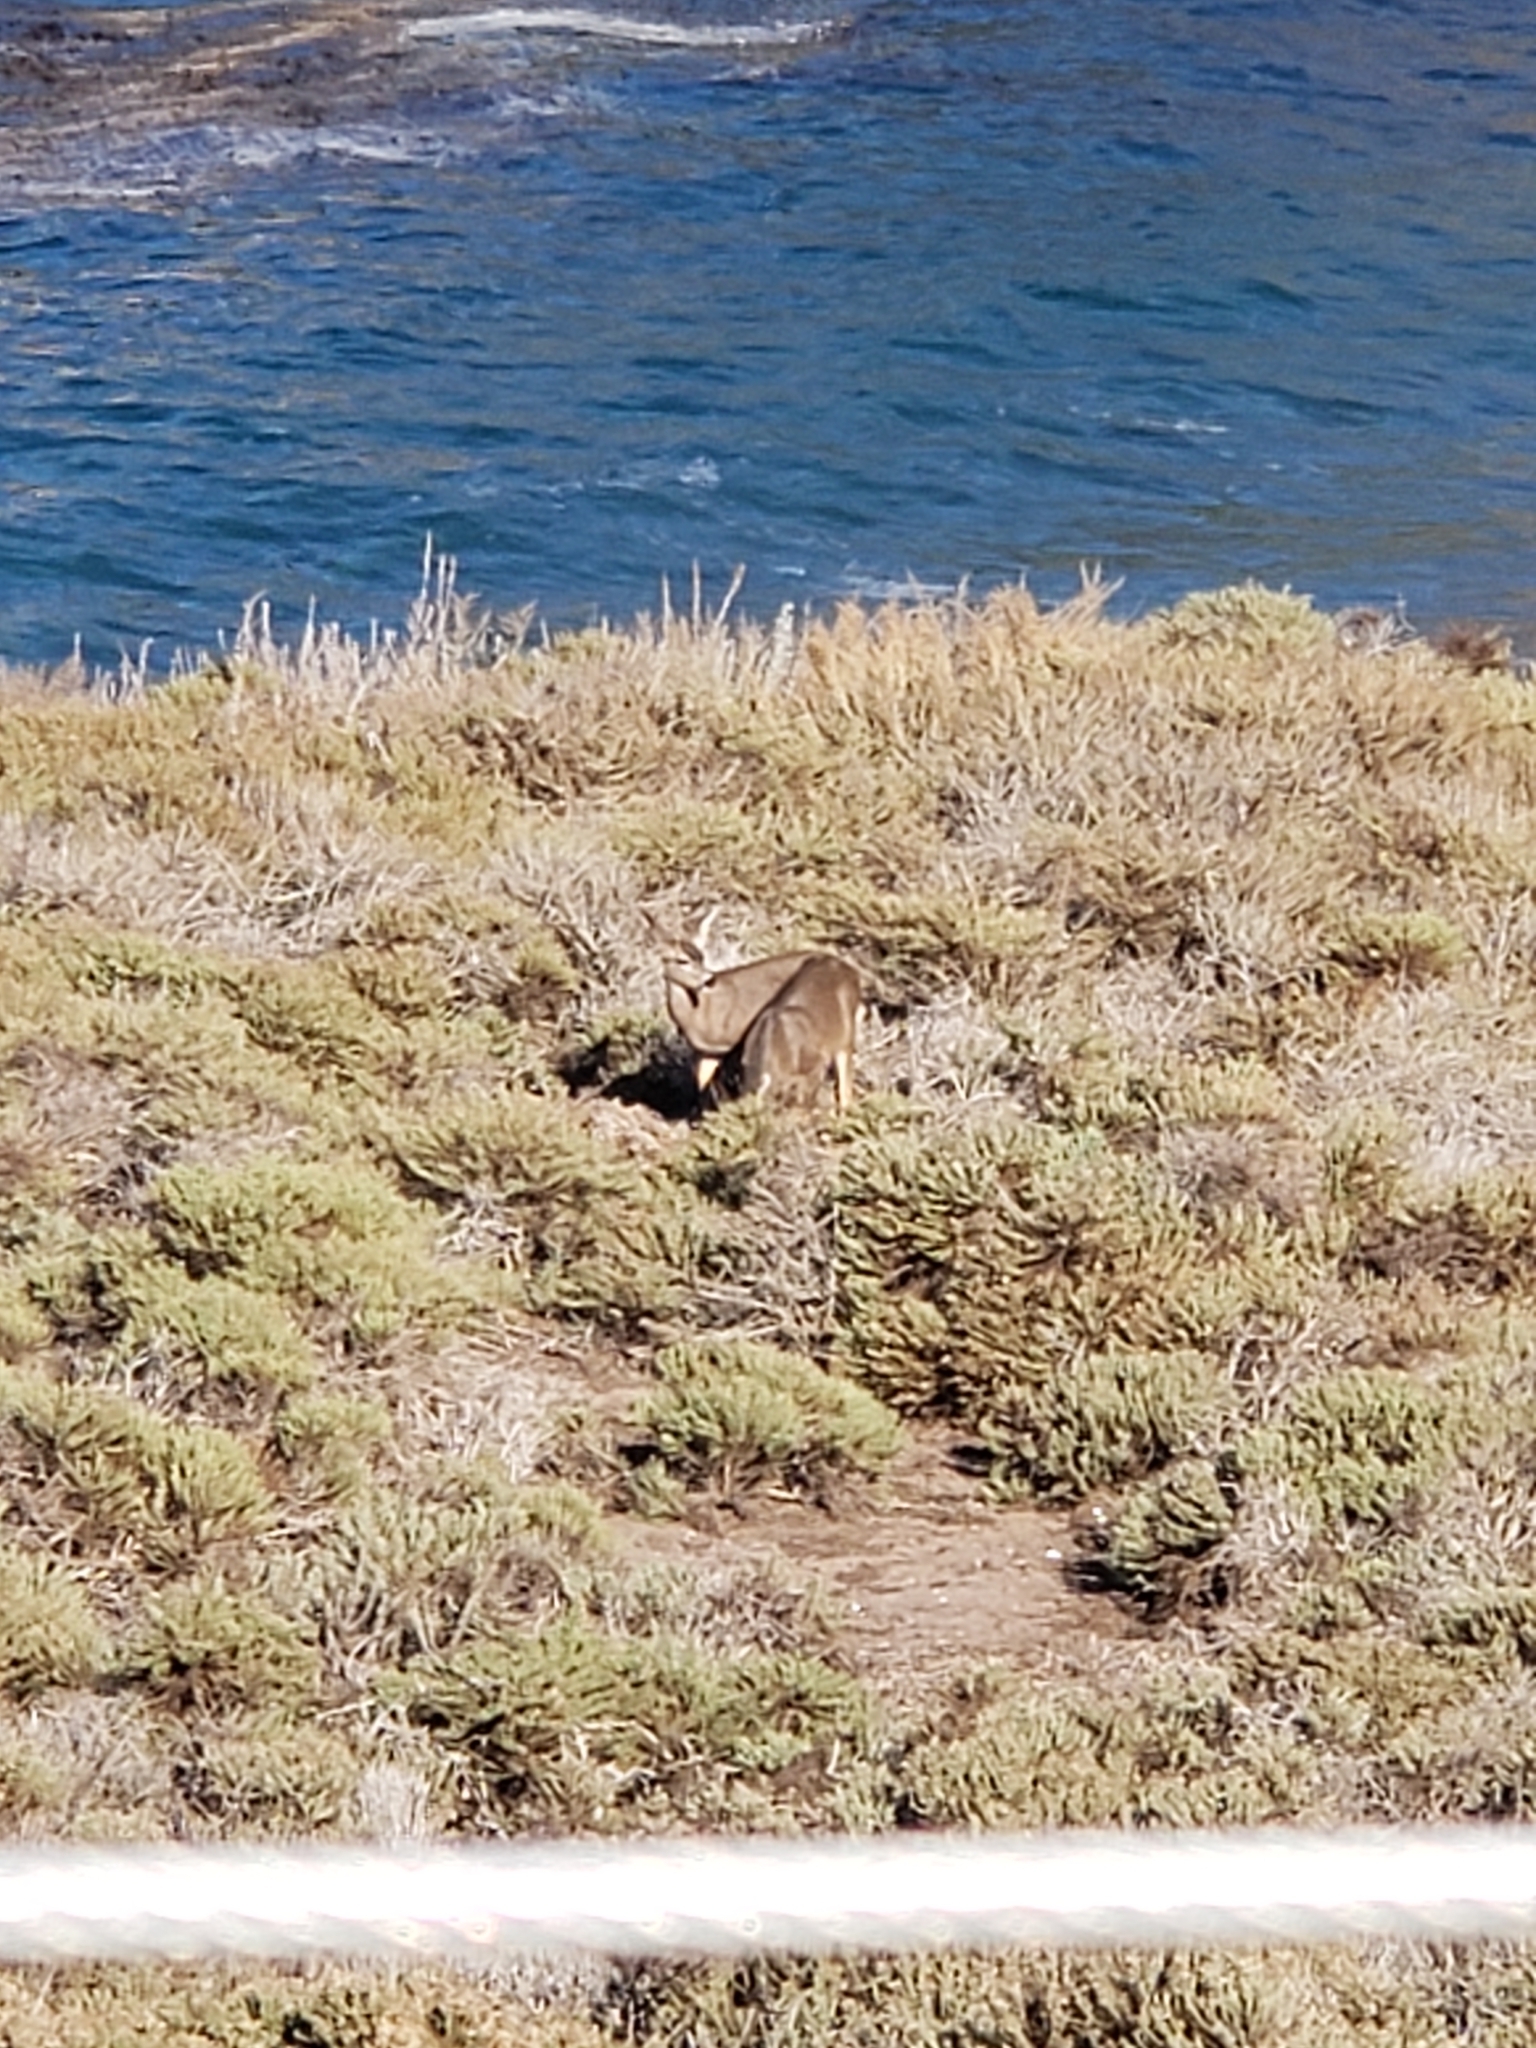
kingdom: Animalia
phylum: Chordata
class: Mammalia
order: Artiodactyla
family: Cervidae
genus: Odocoileus
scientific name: Odocoileus hemionus
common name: Mule deer
